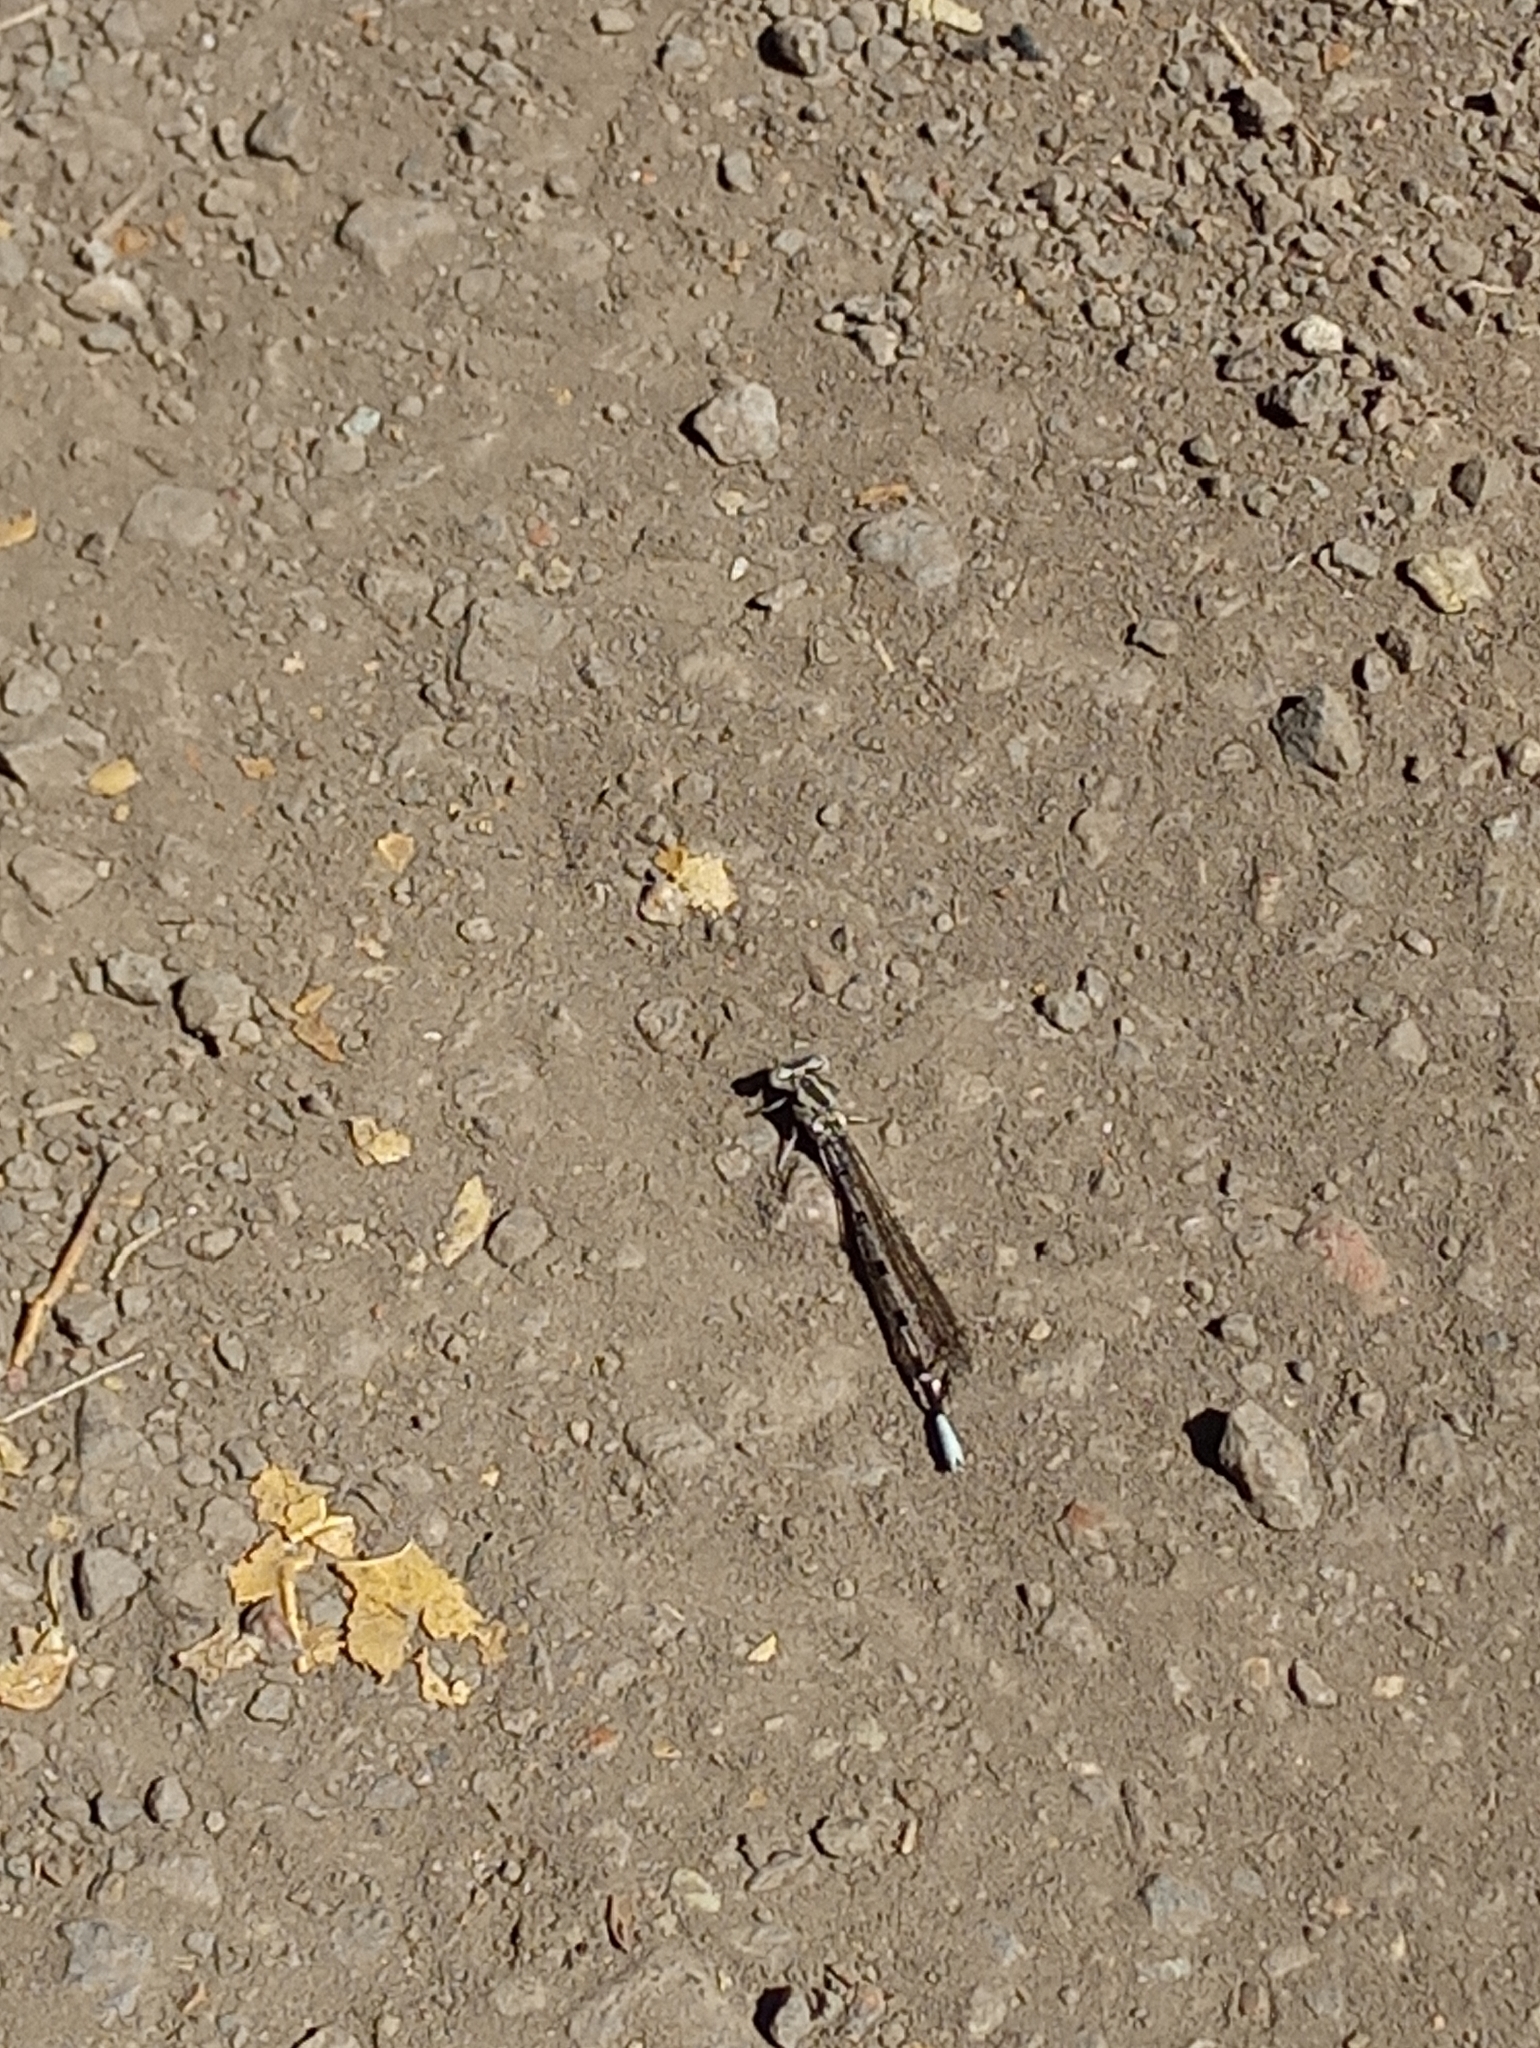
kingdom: Animalia
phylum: Arthropoda
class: Insecta
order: Odonata
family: Coenagrionidae
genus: Argia
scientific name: Argia vivida
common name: Vivid dancer
